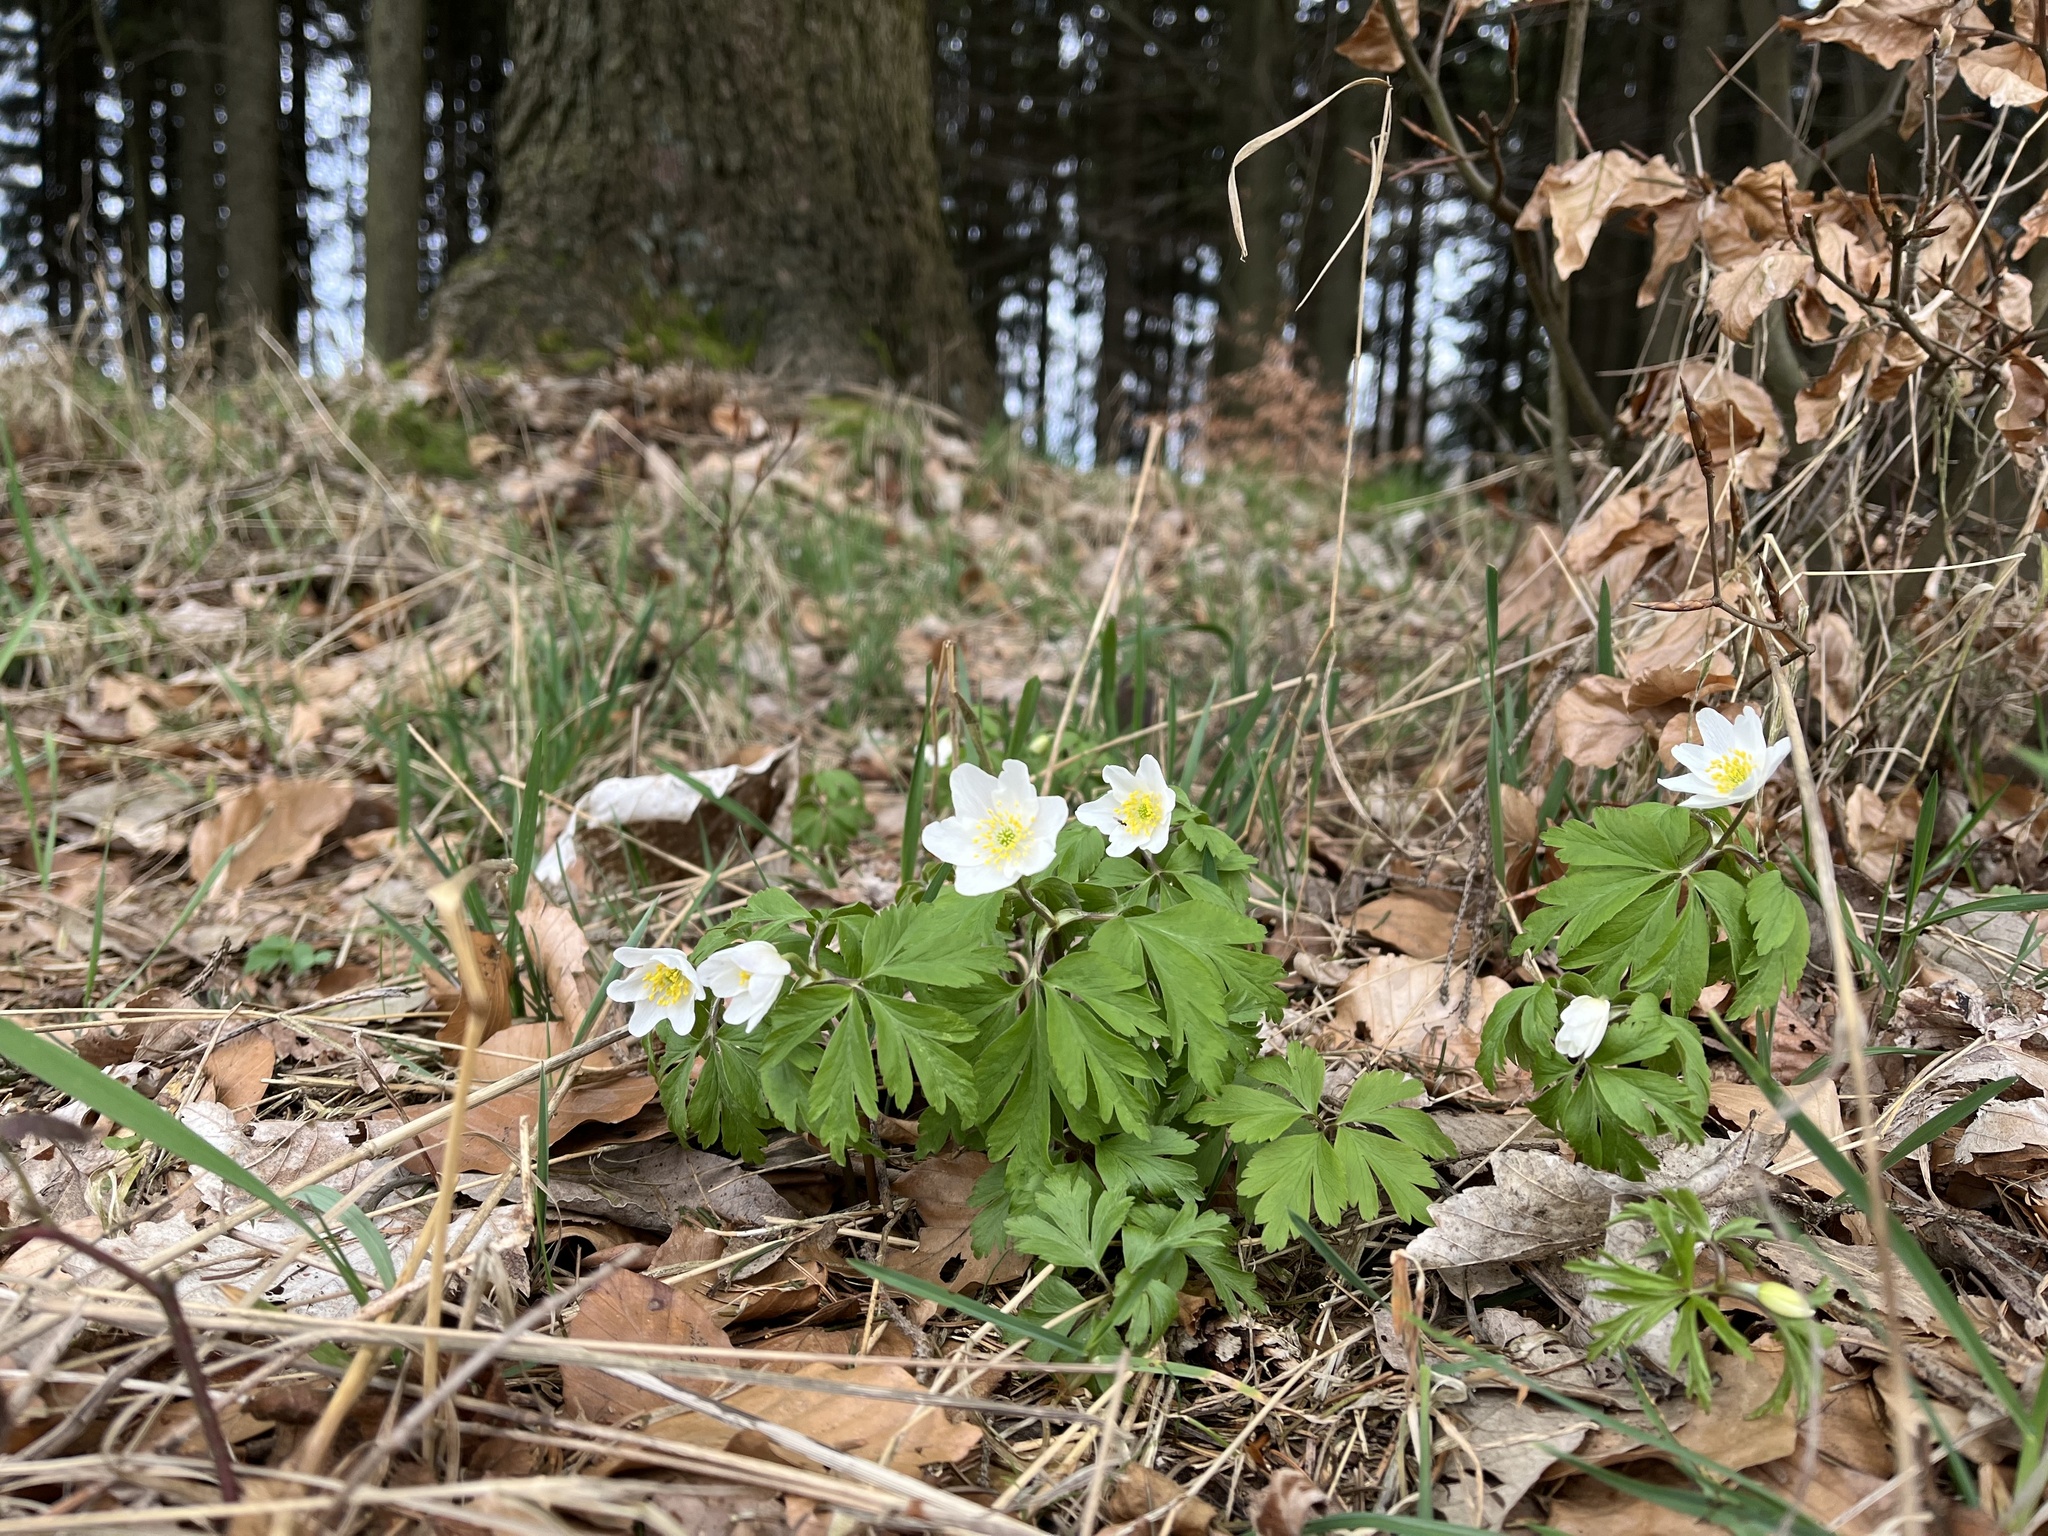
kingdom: Plantae
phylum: Tracheophyta
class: Magnoliopsida
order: Ranunculales
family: Ranunculaceae
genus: Anemone
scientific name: Anemone nemorosa
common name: Wood anemone
